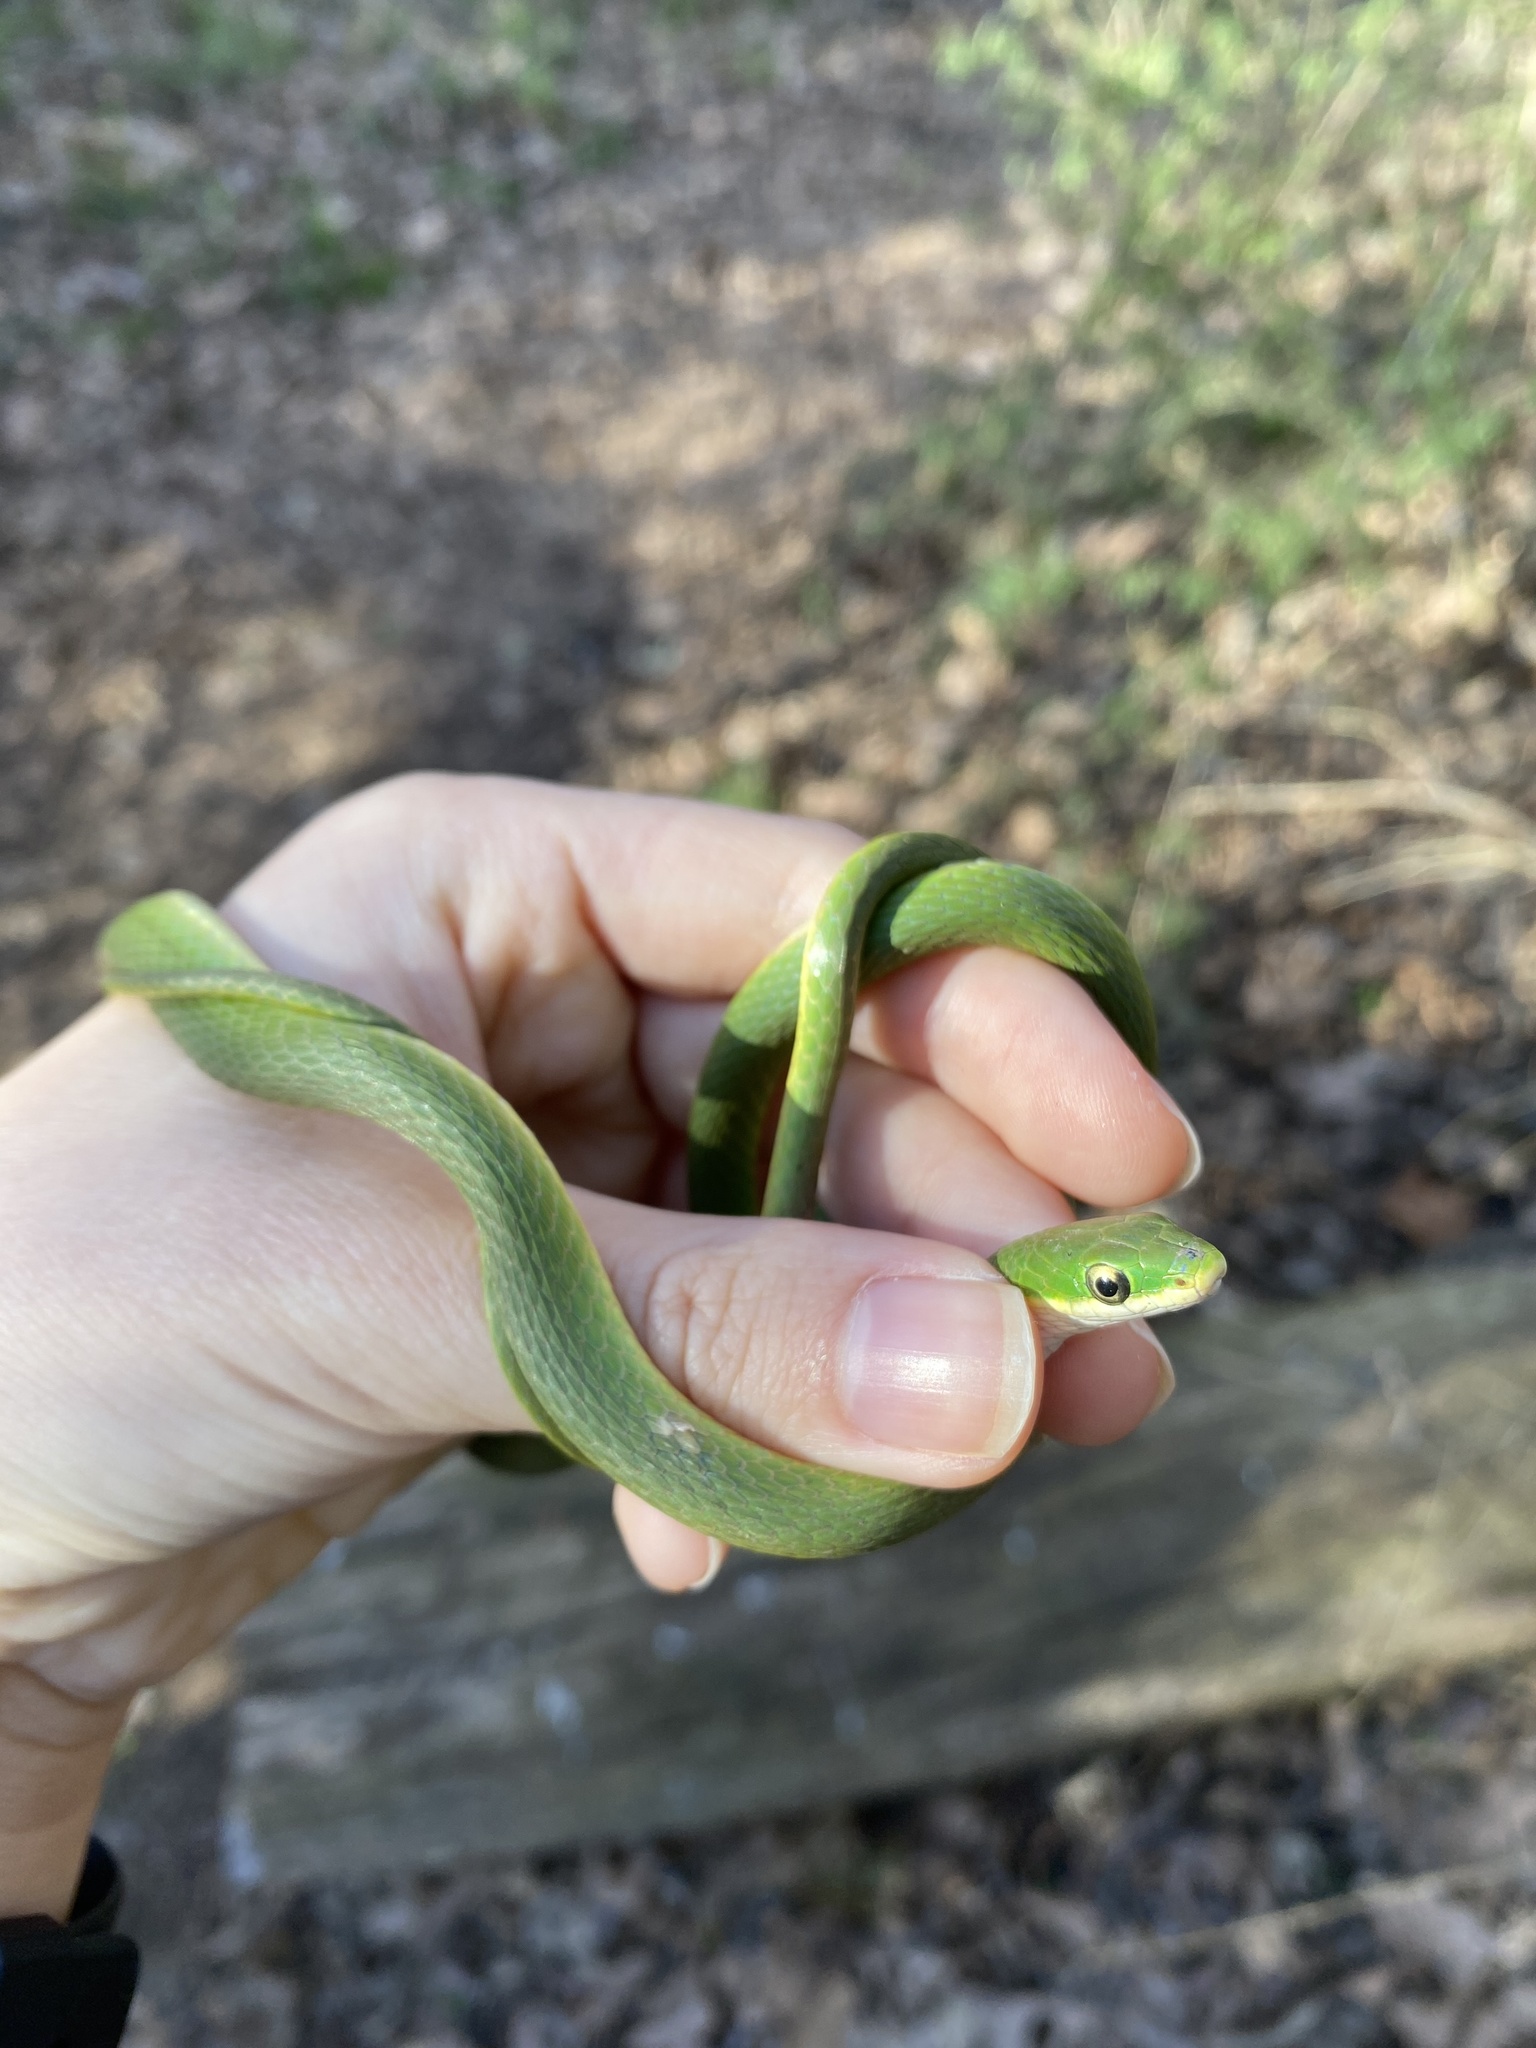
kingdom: Animalia
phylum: Chordata
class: Squamata
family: Colubridae
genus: Opheodrys
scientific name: Opheodrys aestivus
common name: Rough greensnake
